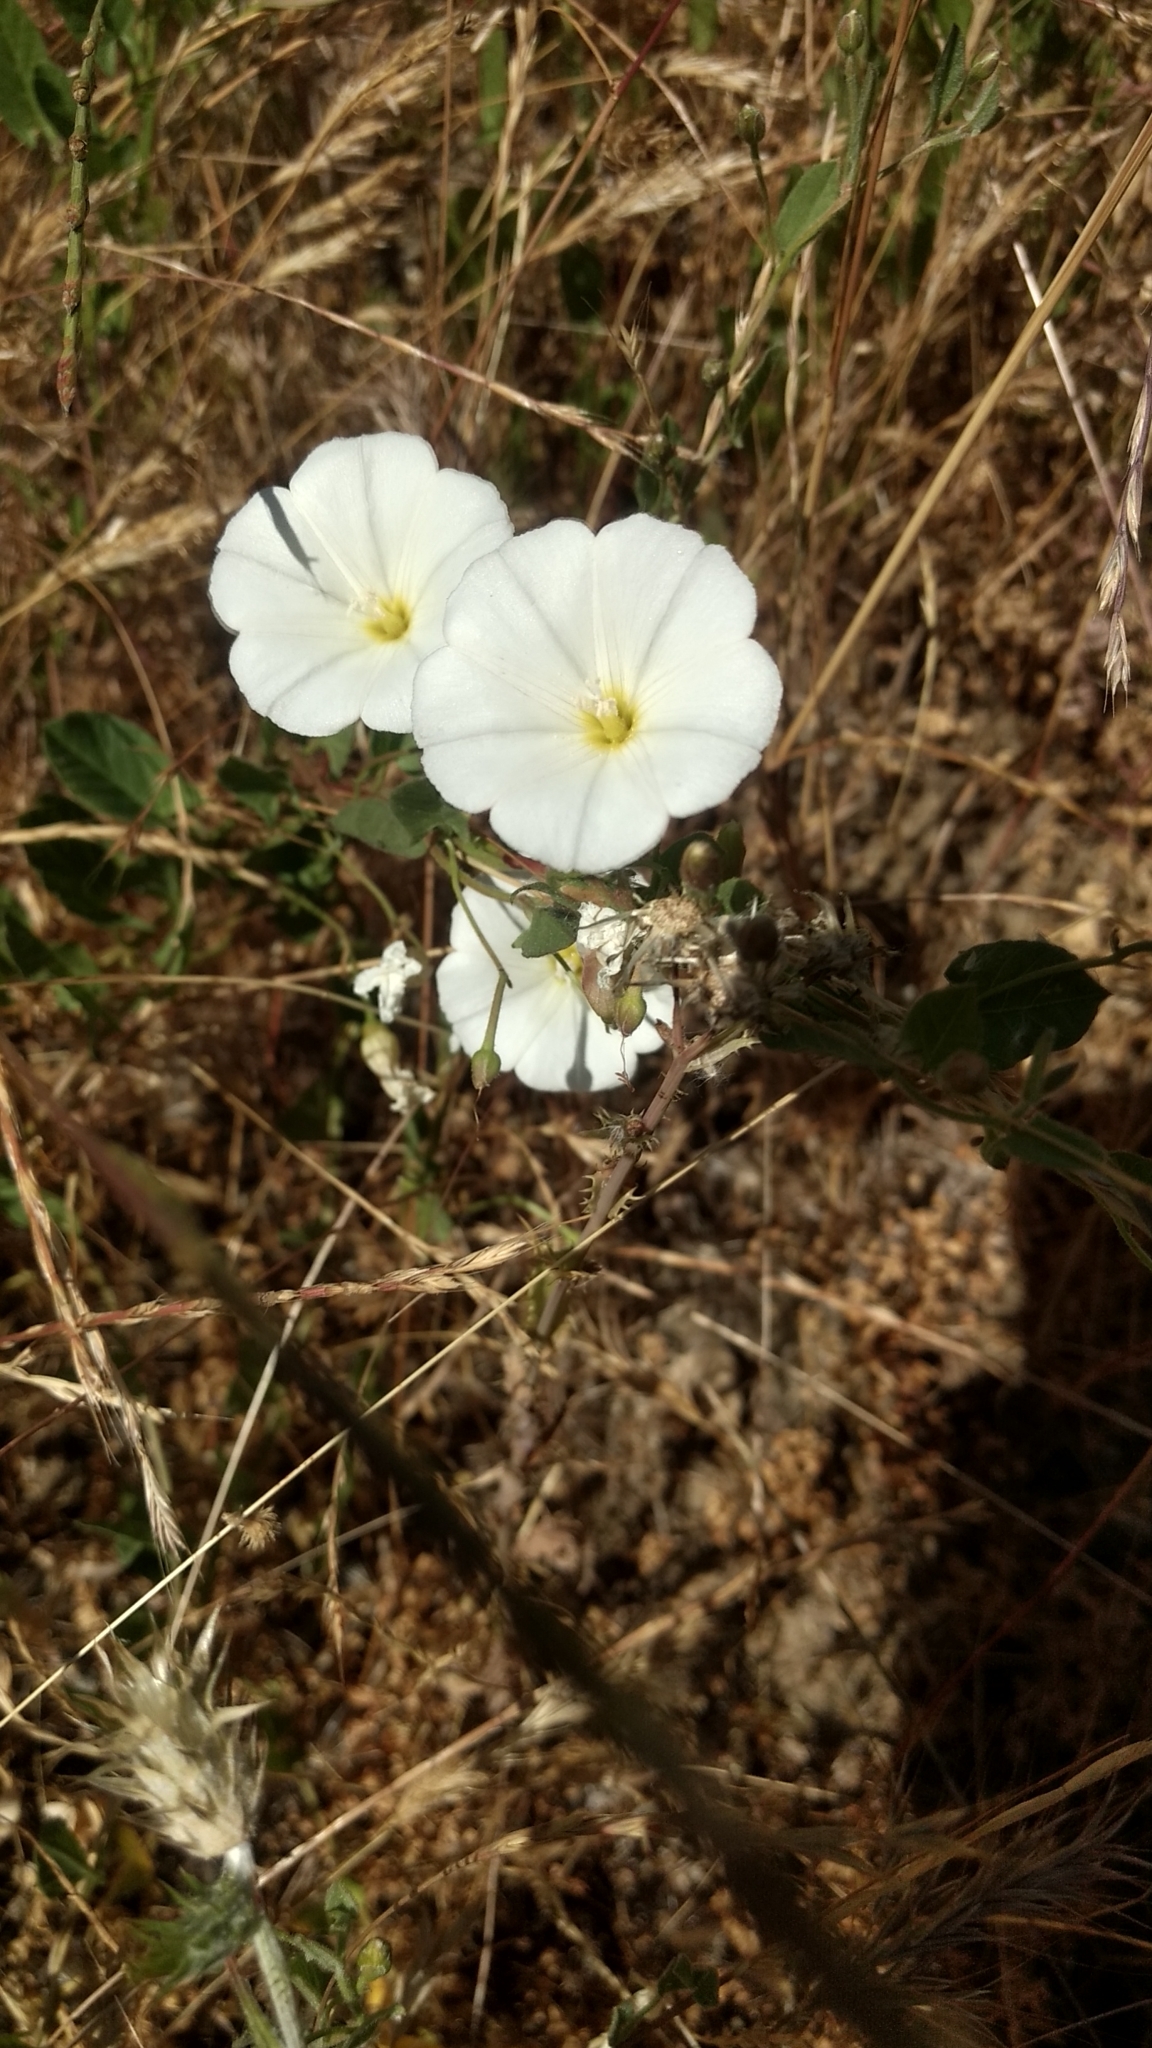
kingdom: Plantae
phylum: Tracheophyta
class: Magnoliopsida
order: Solanales
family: Convolvulaceae
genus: Convolvulus
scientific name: Convolvulus arvensis
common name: Field bindweed
